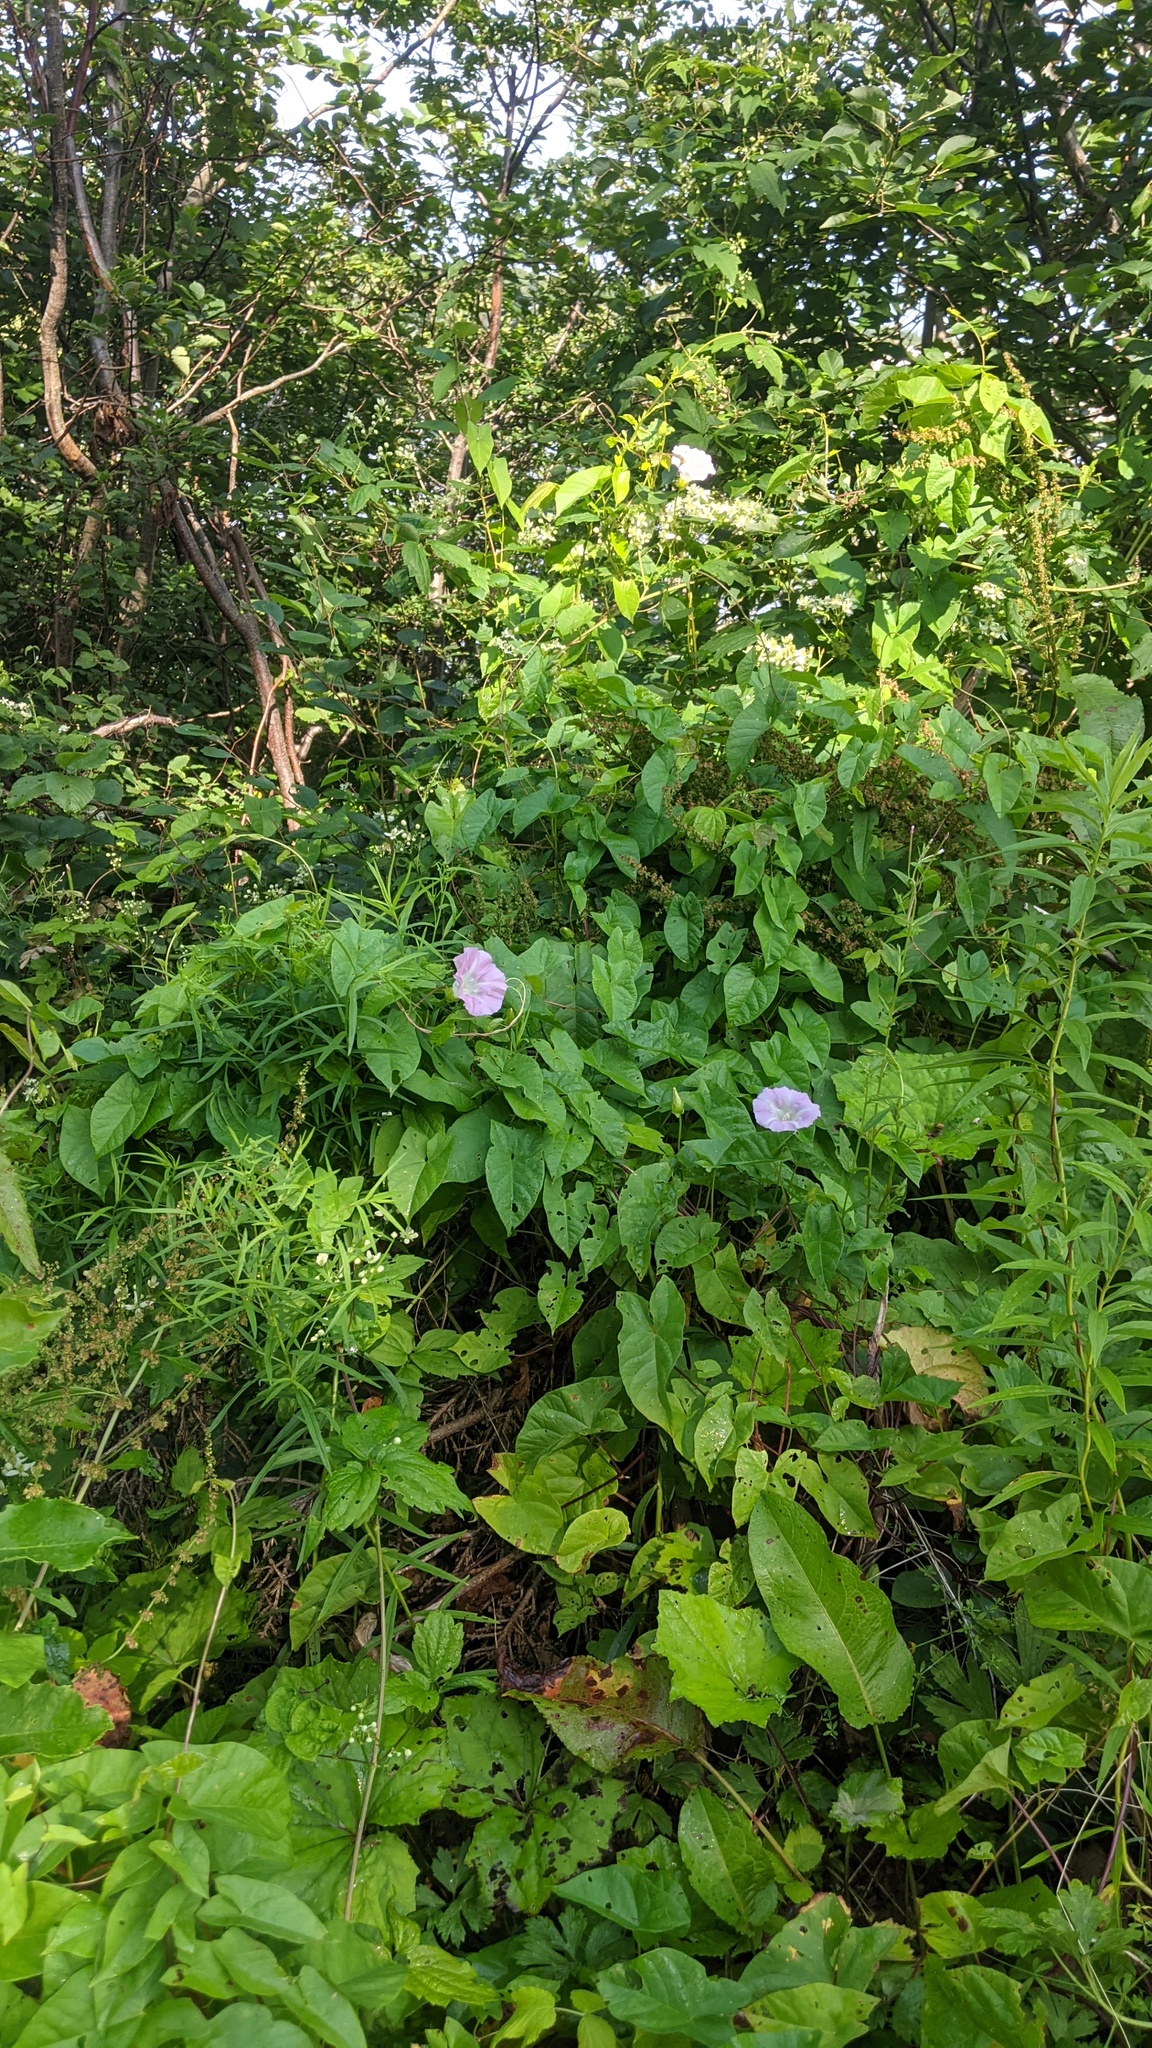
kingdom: Plantae
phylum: Tracheophyta
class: Magnoliopsida
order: Solanales
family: Convolvulaceae
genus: Calystegia
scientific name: Calystegia sepium
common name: Hedge bindweed
